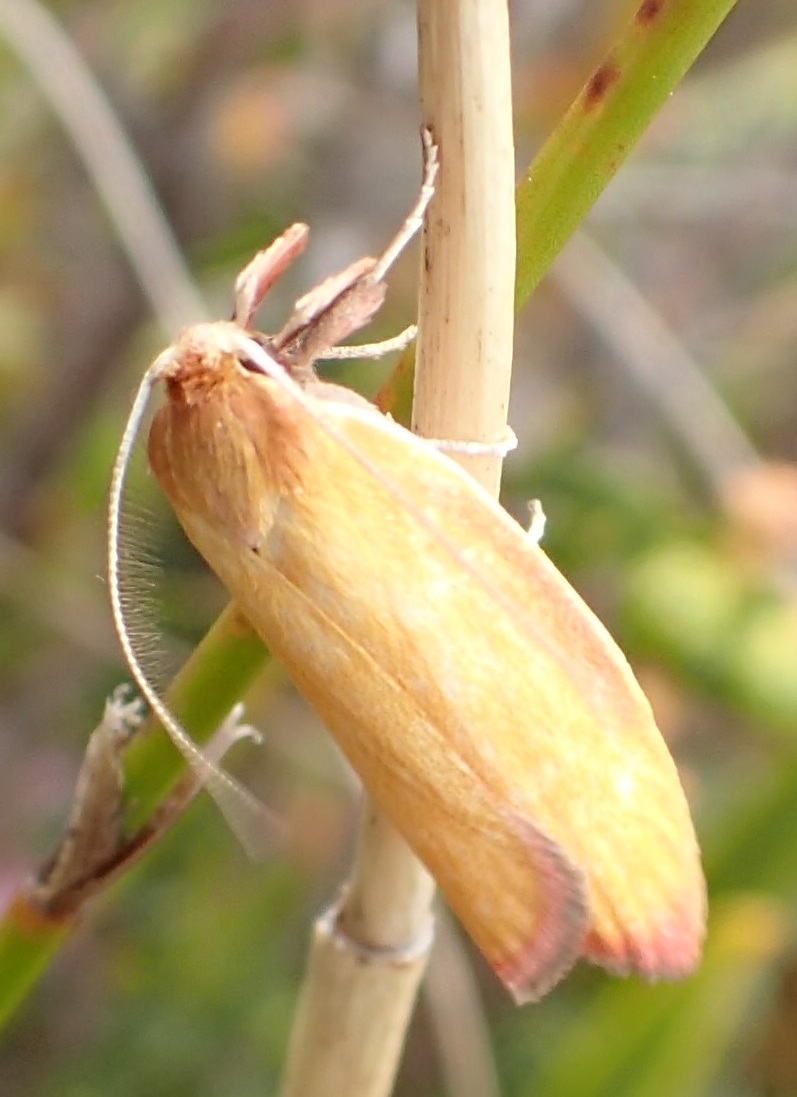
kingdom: Animalia
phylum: Arthropoda
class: Insecta
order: Lepidoptera
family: Oecophoridae
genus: Wingia
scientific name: Wingia hesperidella
